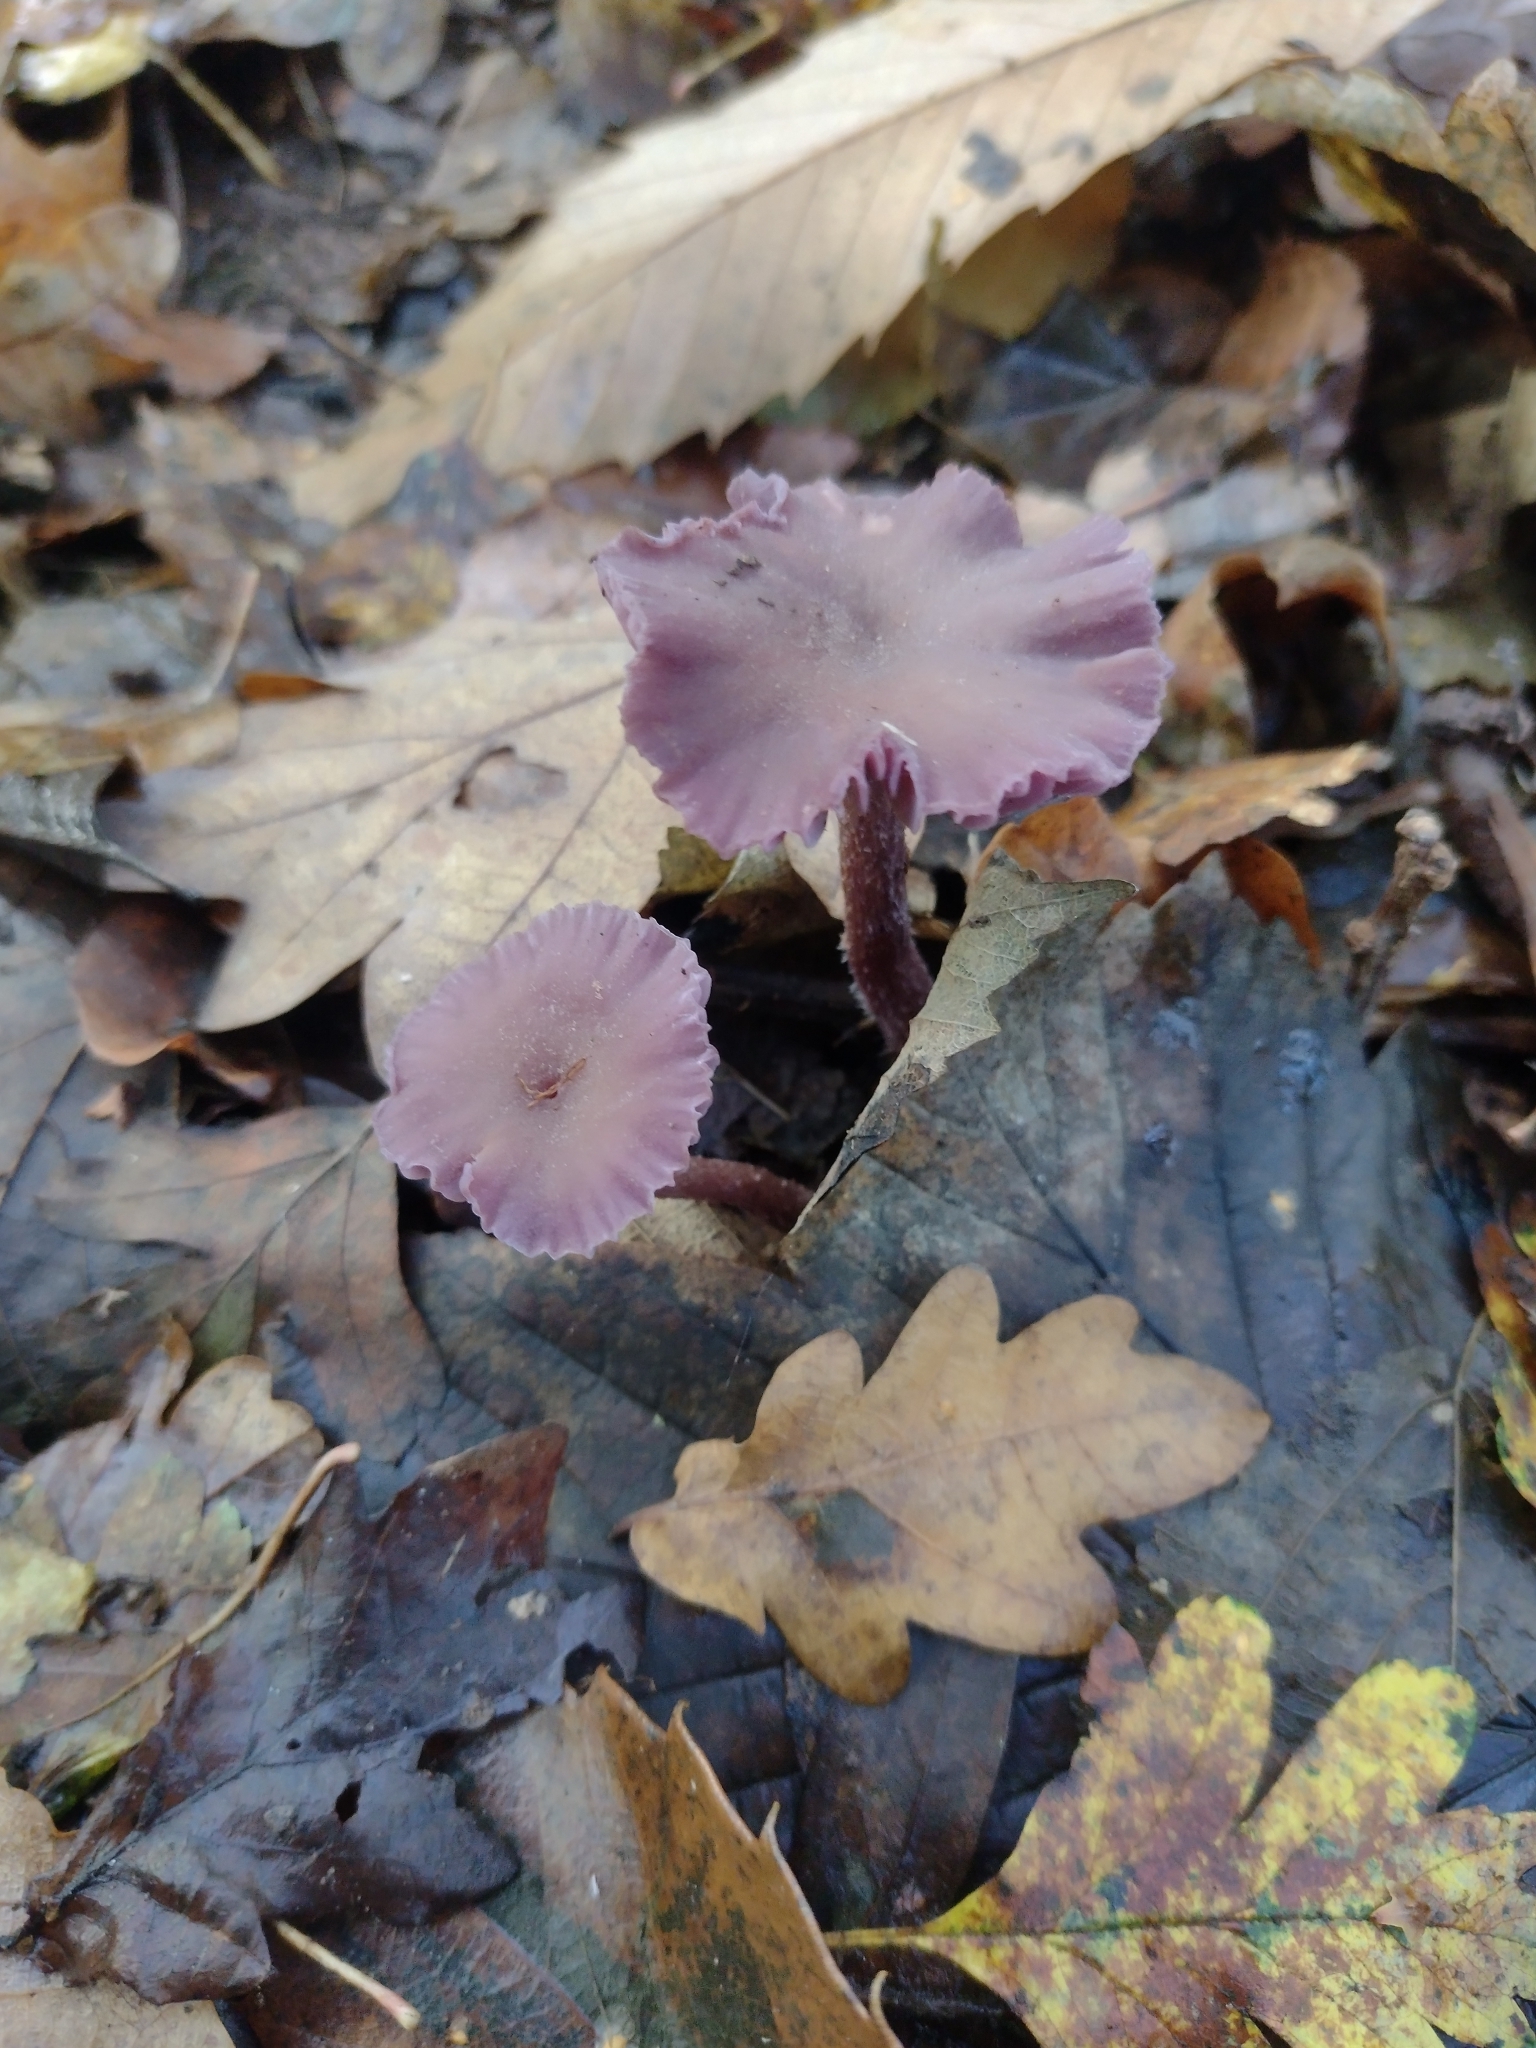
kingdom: Fungi
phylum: Basidiomycota
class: Agaricomycetes
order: Agaricales
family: Hydnangiaceae
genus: Laccaria
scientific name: Laccaria amethystina
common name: Amethyst deceiver
